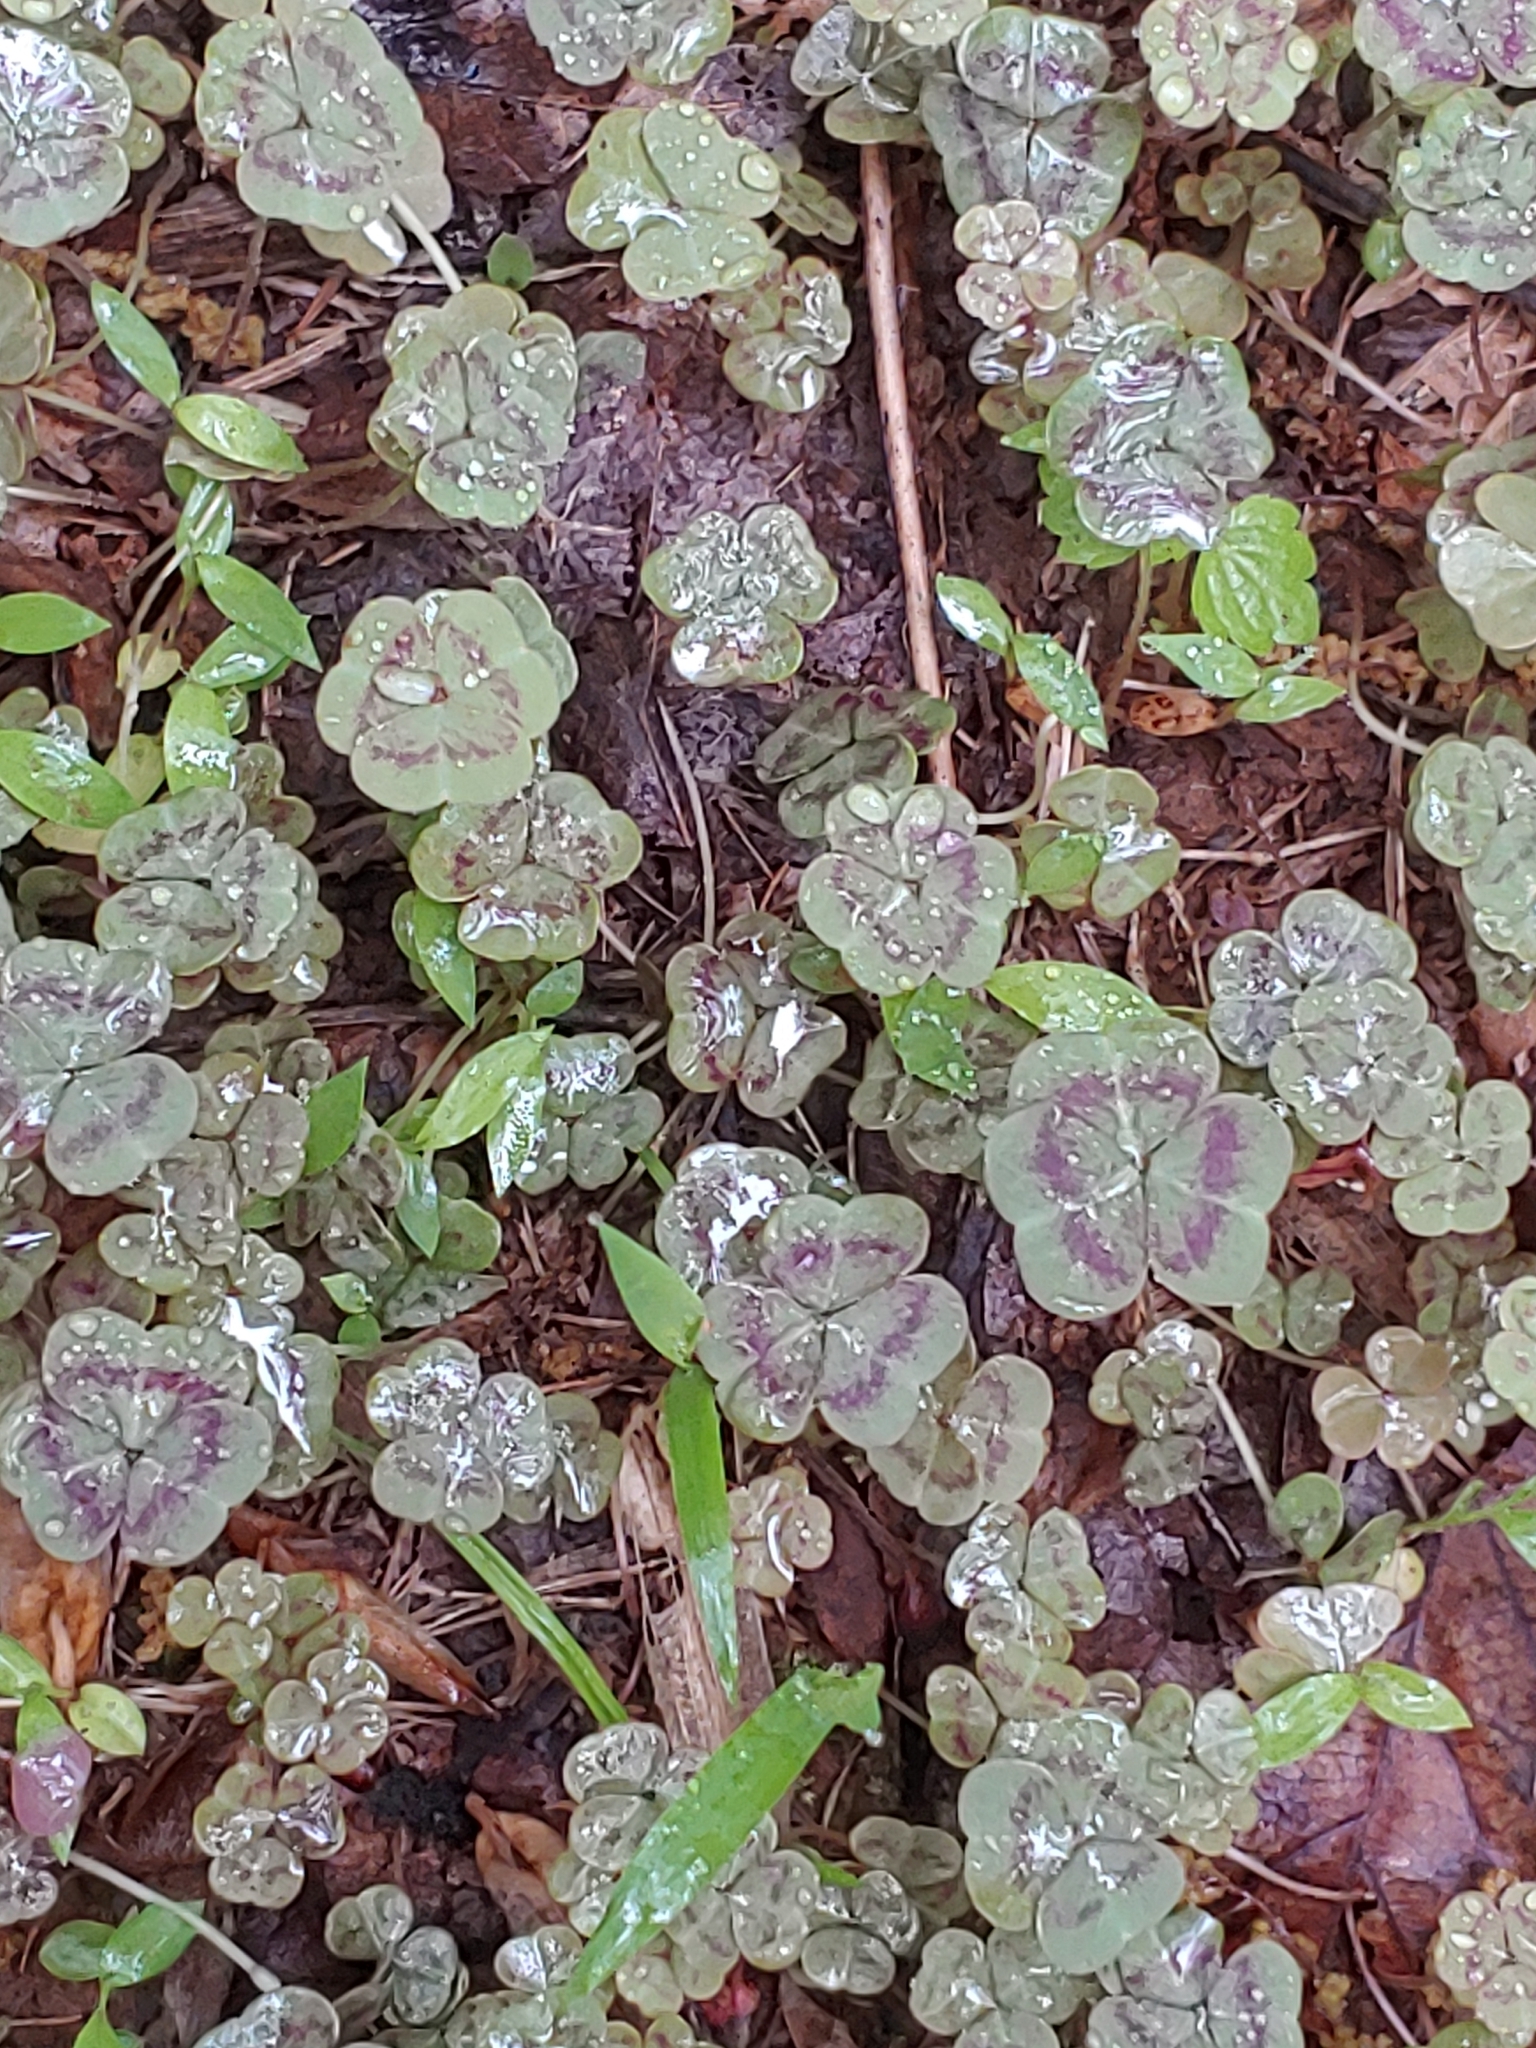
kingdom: Plantae
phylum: Tracheophyta
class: Magnoliopsida
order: Oxalidales
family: Oxalidaceae
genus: Oxalis
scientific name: Oxalis violacea
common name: Violet wood-sorrel
